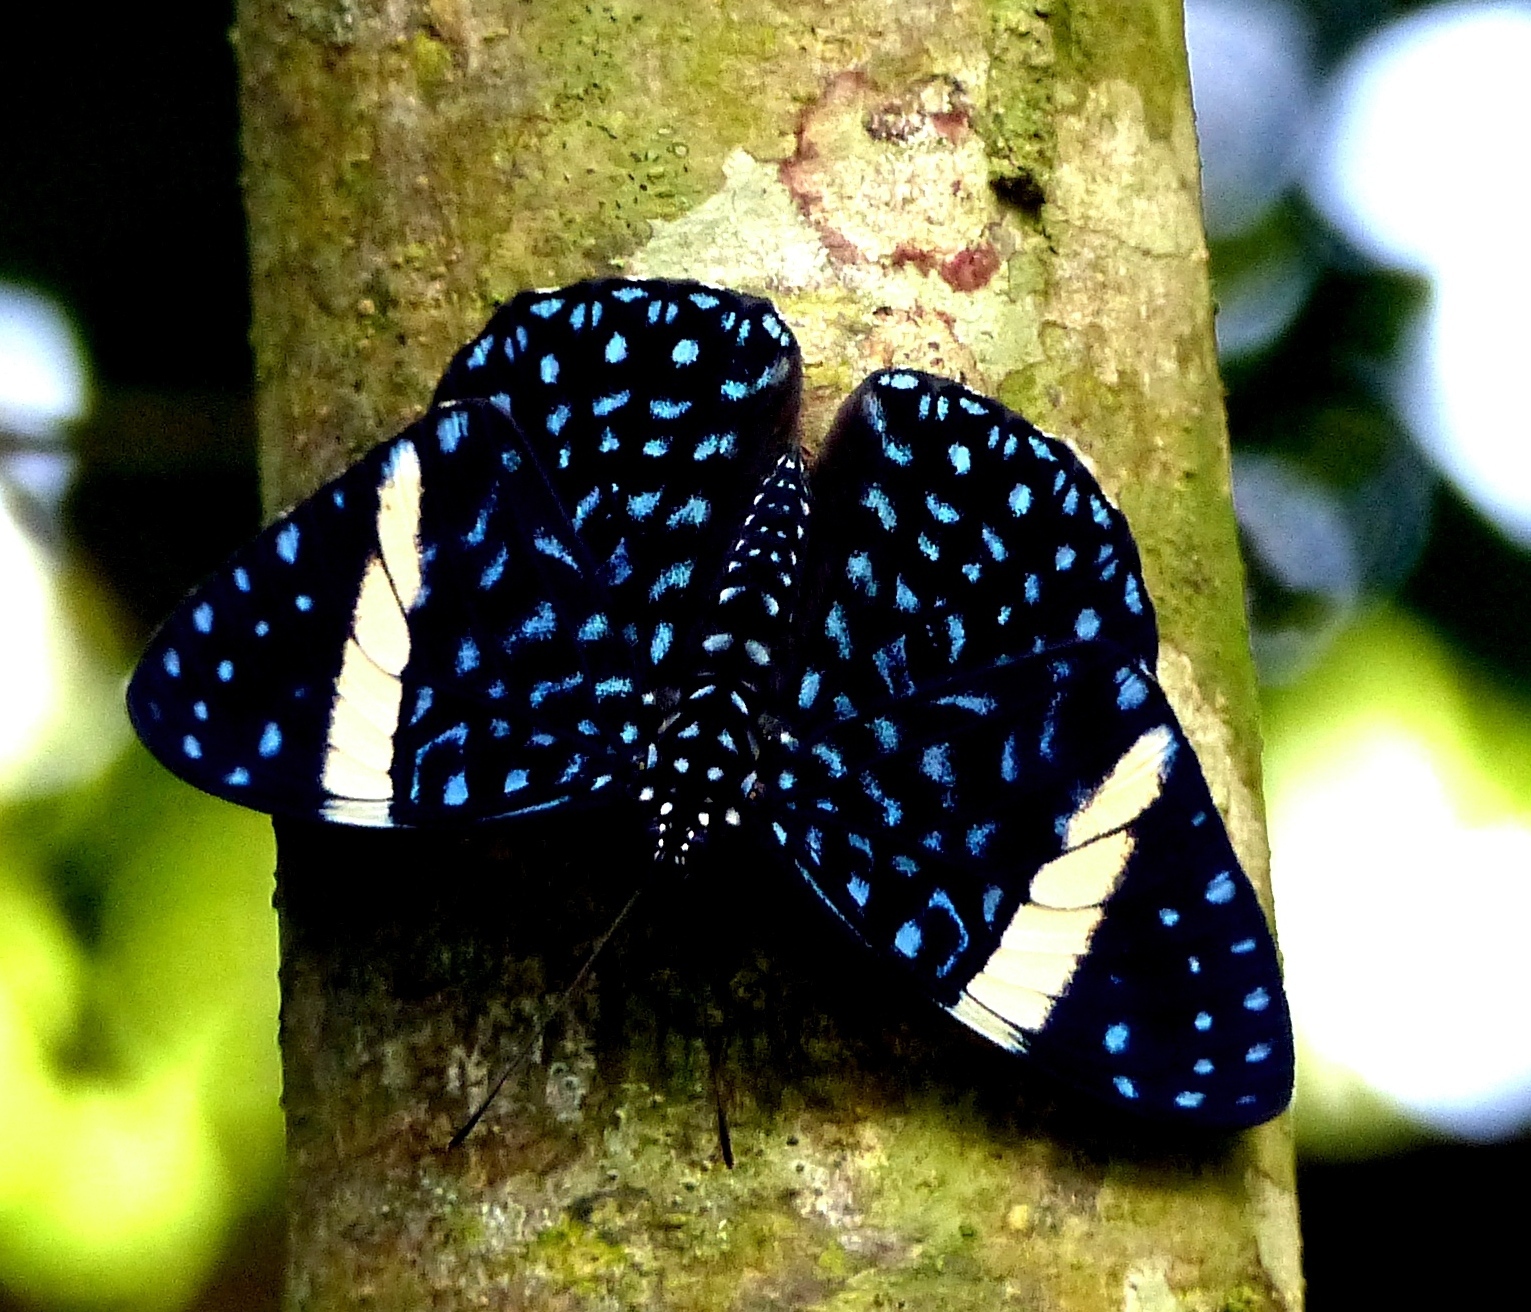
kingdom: Animalia
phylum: Arthropoda
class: Insecta
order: Lepidoptera
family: Nymphalidae
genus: Hamadryas
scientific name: Hamadryas laodamia
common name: Starry night cracker
